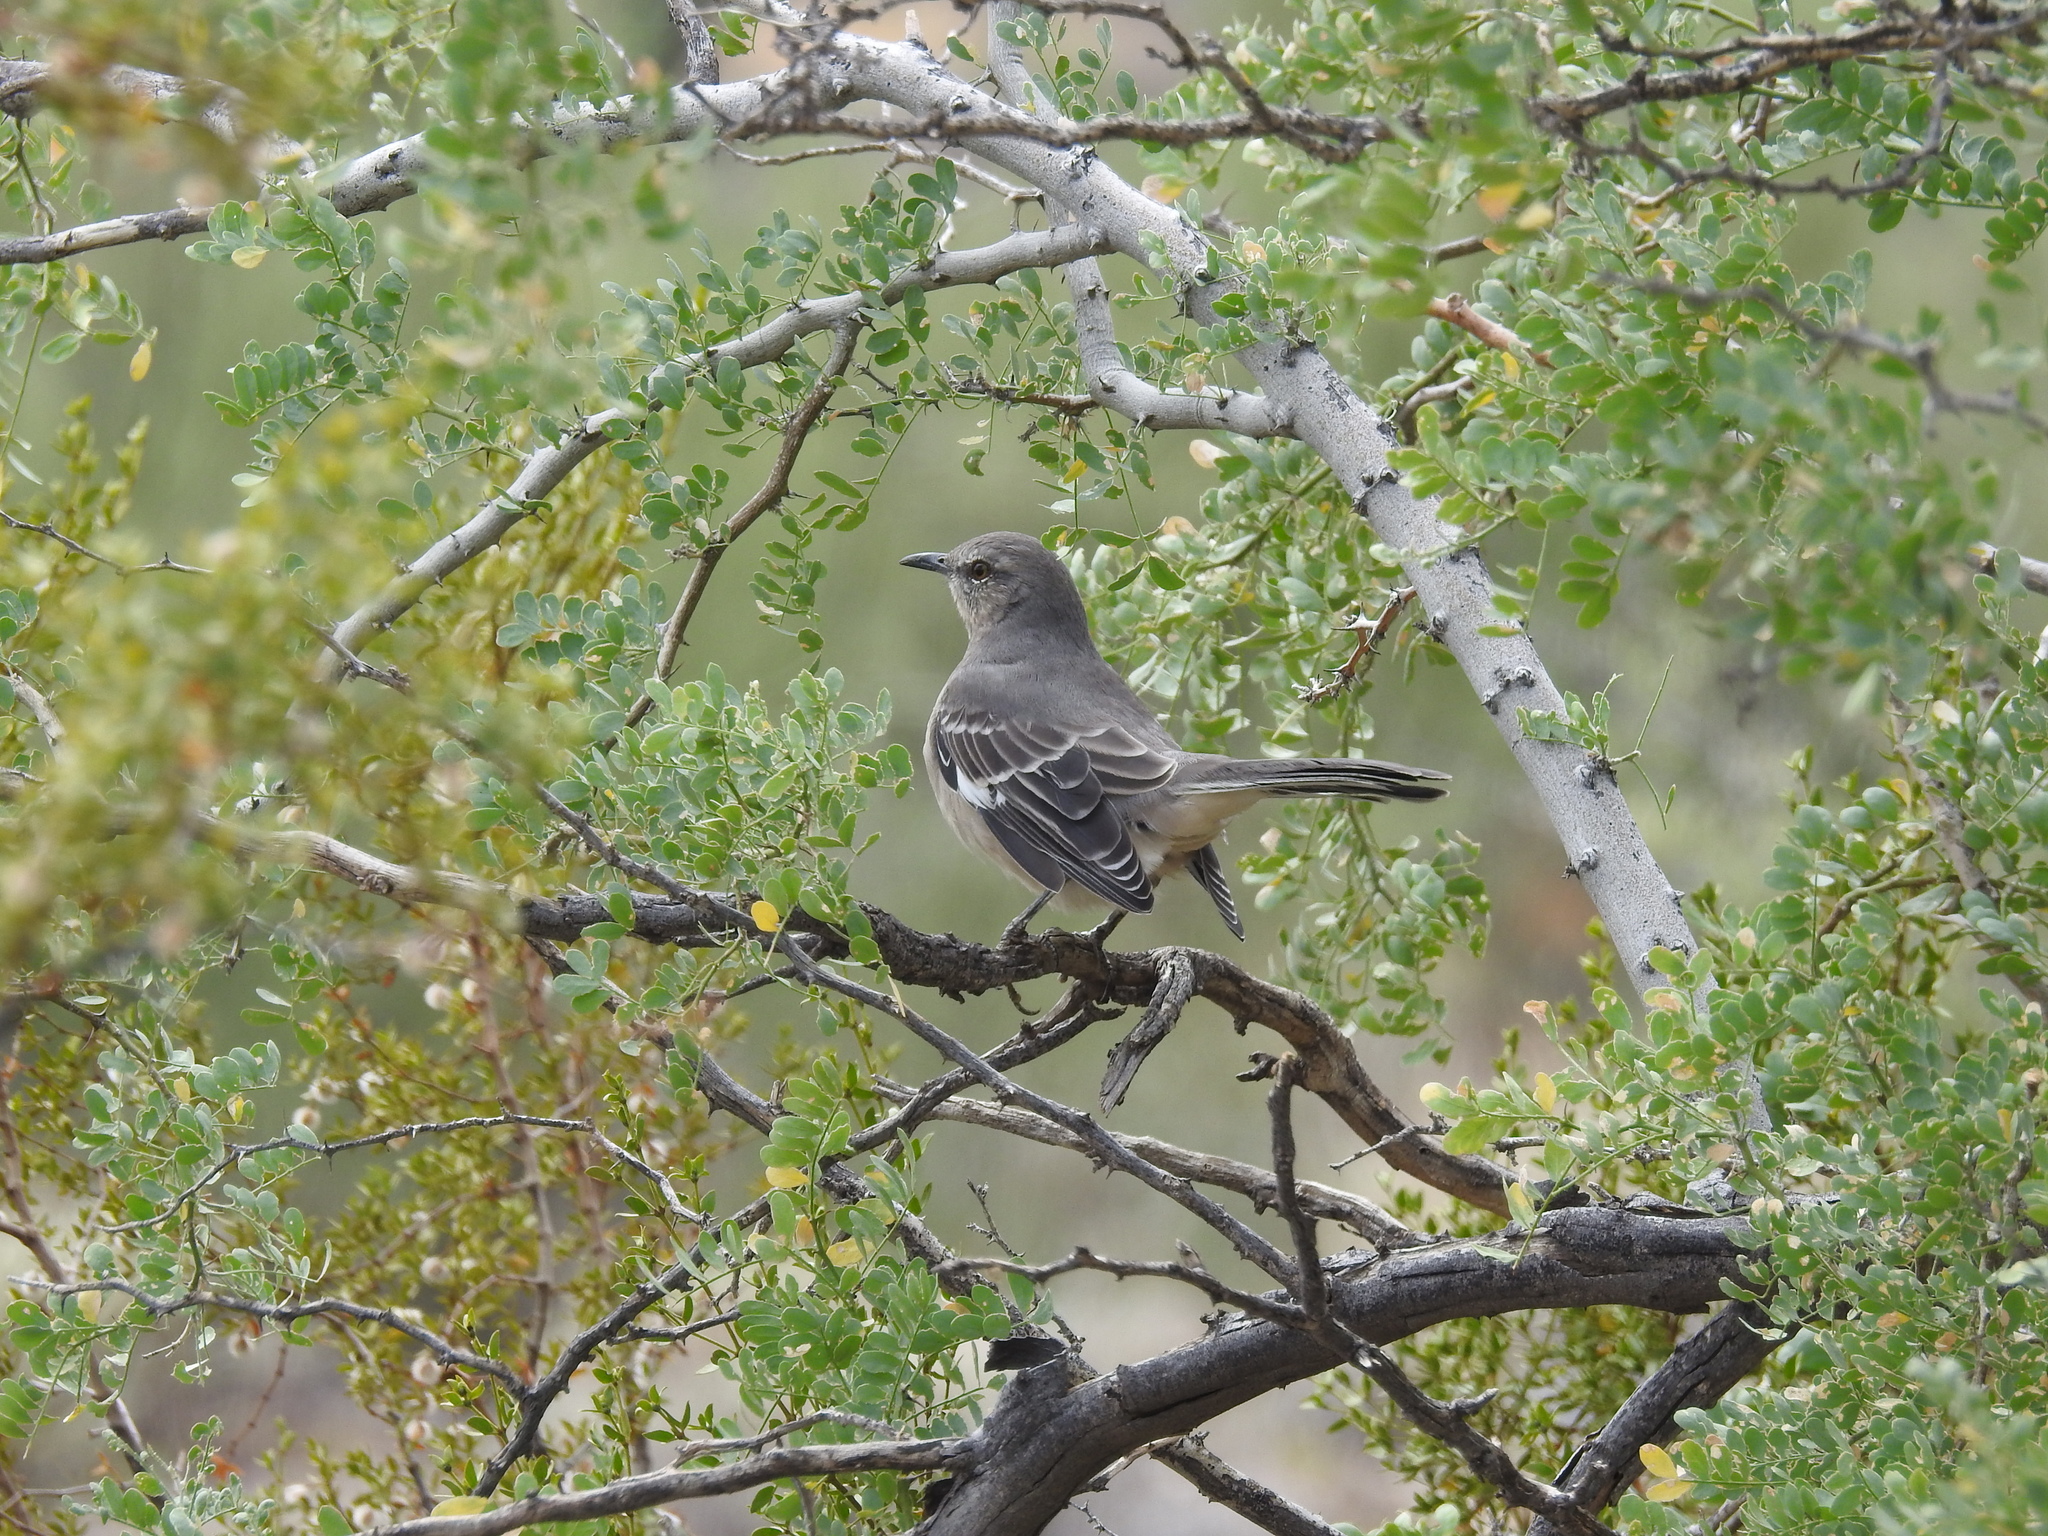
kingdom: Animalia
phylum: Chordata
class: Aves
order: Passeriformes
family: Mimidae
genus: Mimus
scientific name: Mimus polyglottos
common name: Northern mockingbird
